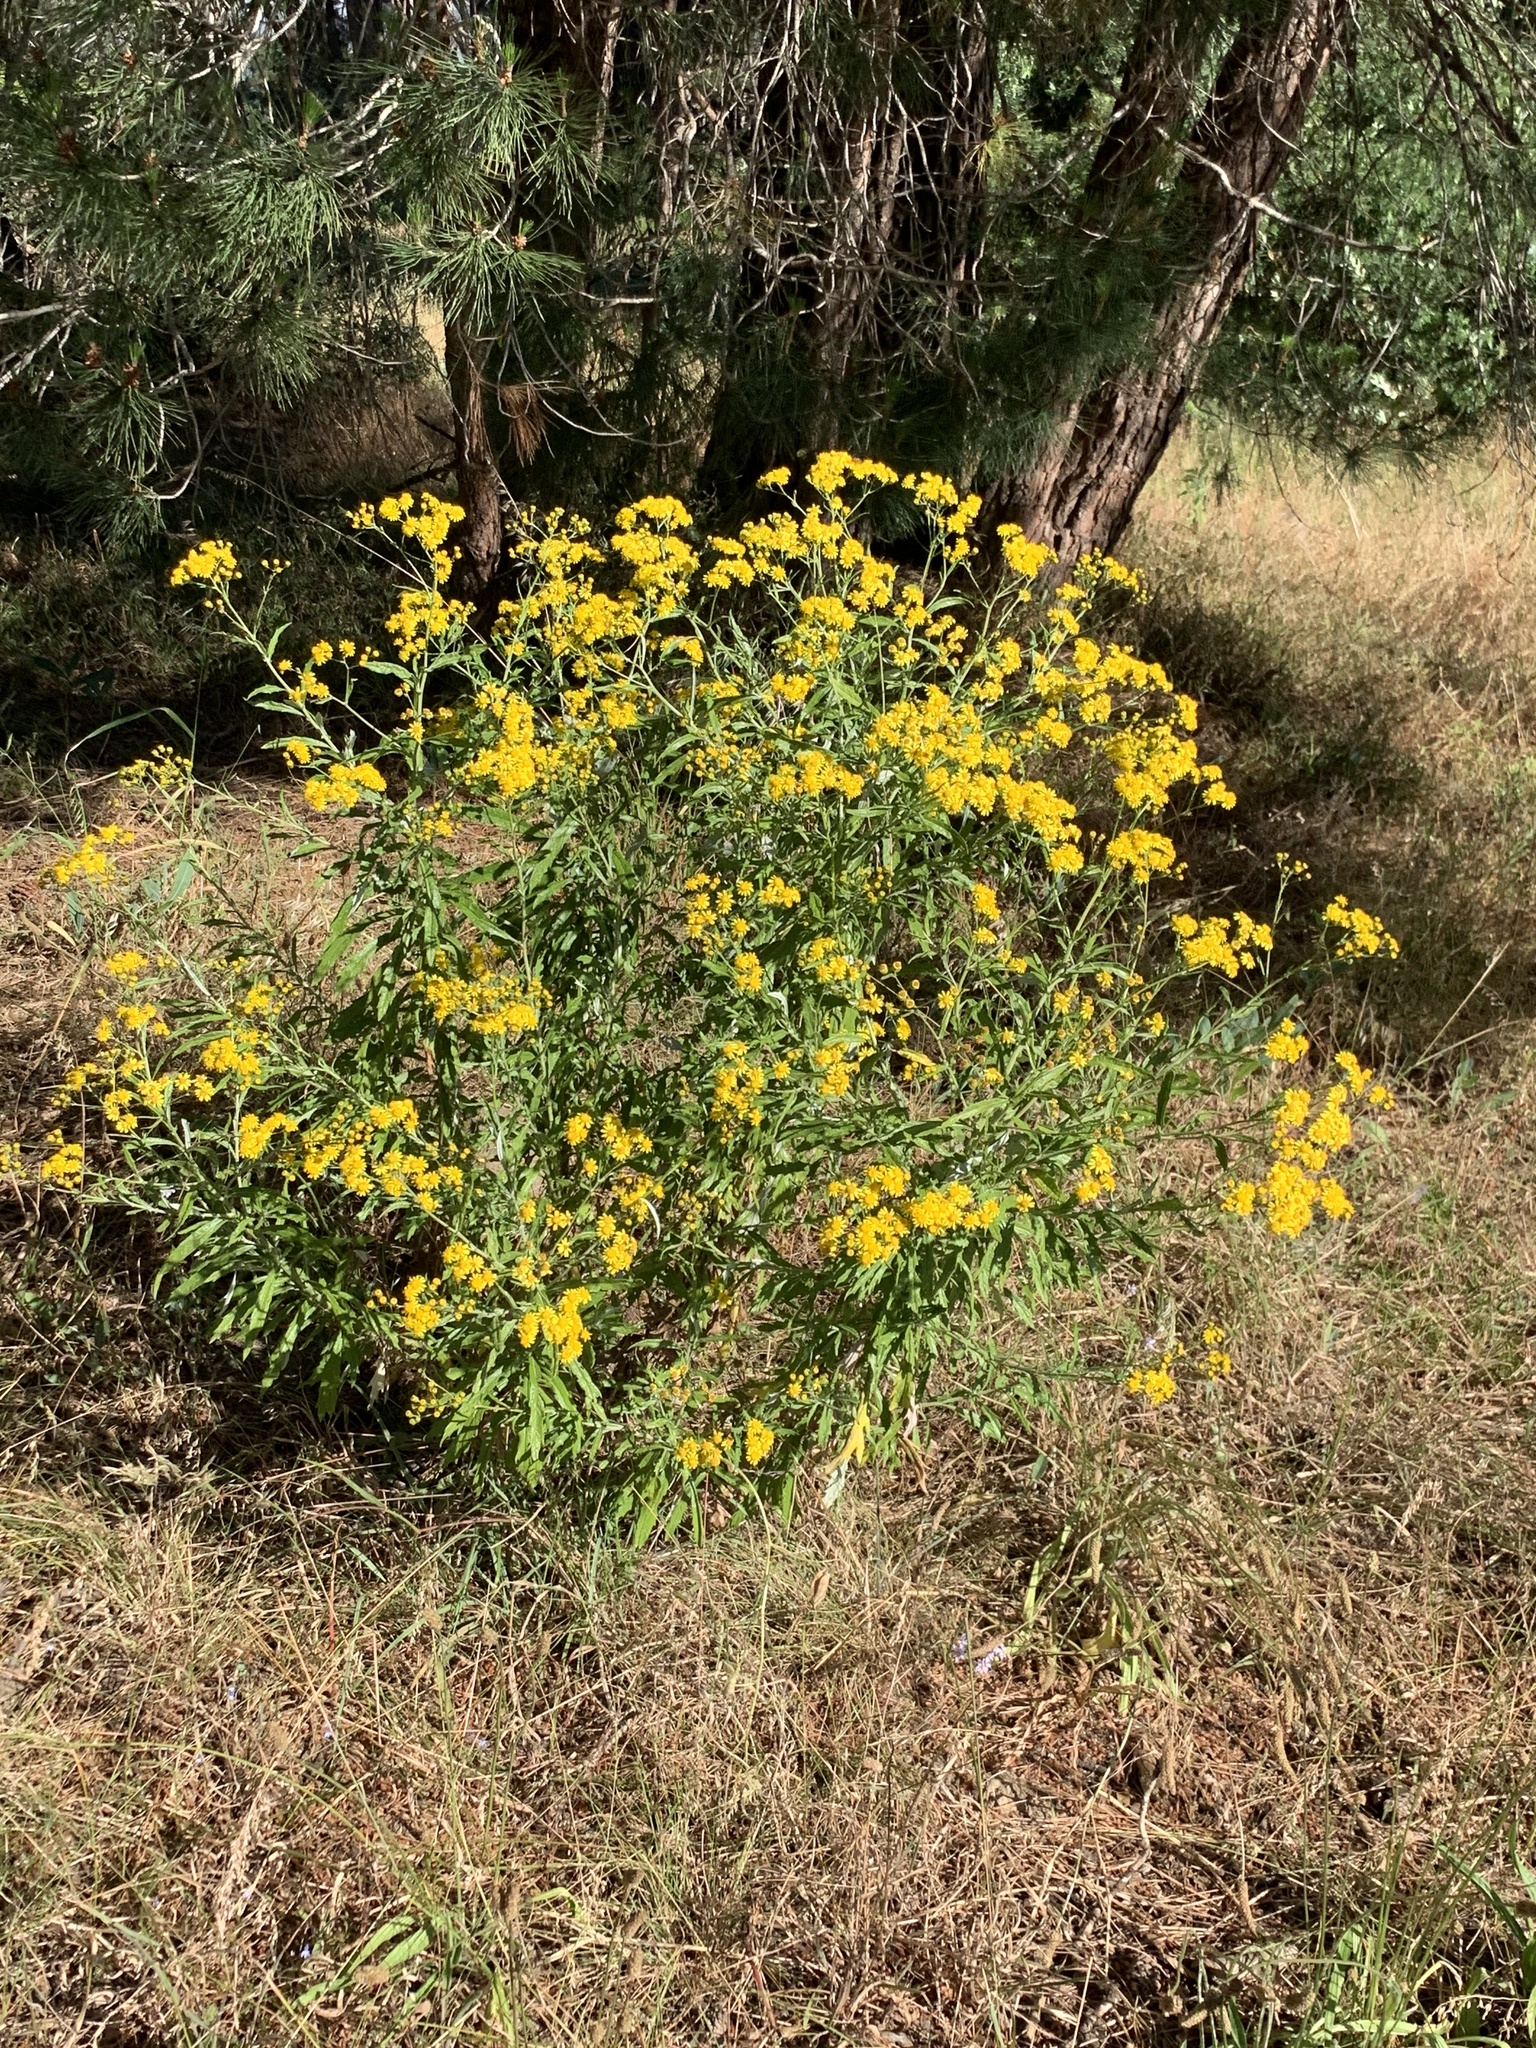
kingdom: Plantae
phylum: Tracheophyta
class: Magnoliopsida
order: Asterales
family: Asteraceae
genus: Senecio
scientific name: Senecio pterophorus
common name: Shoddy ragwort
